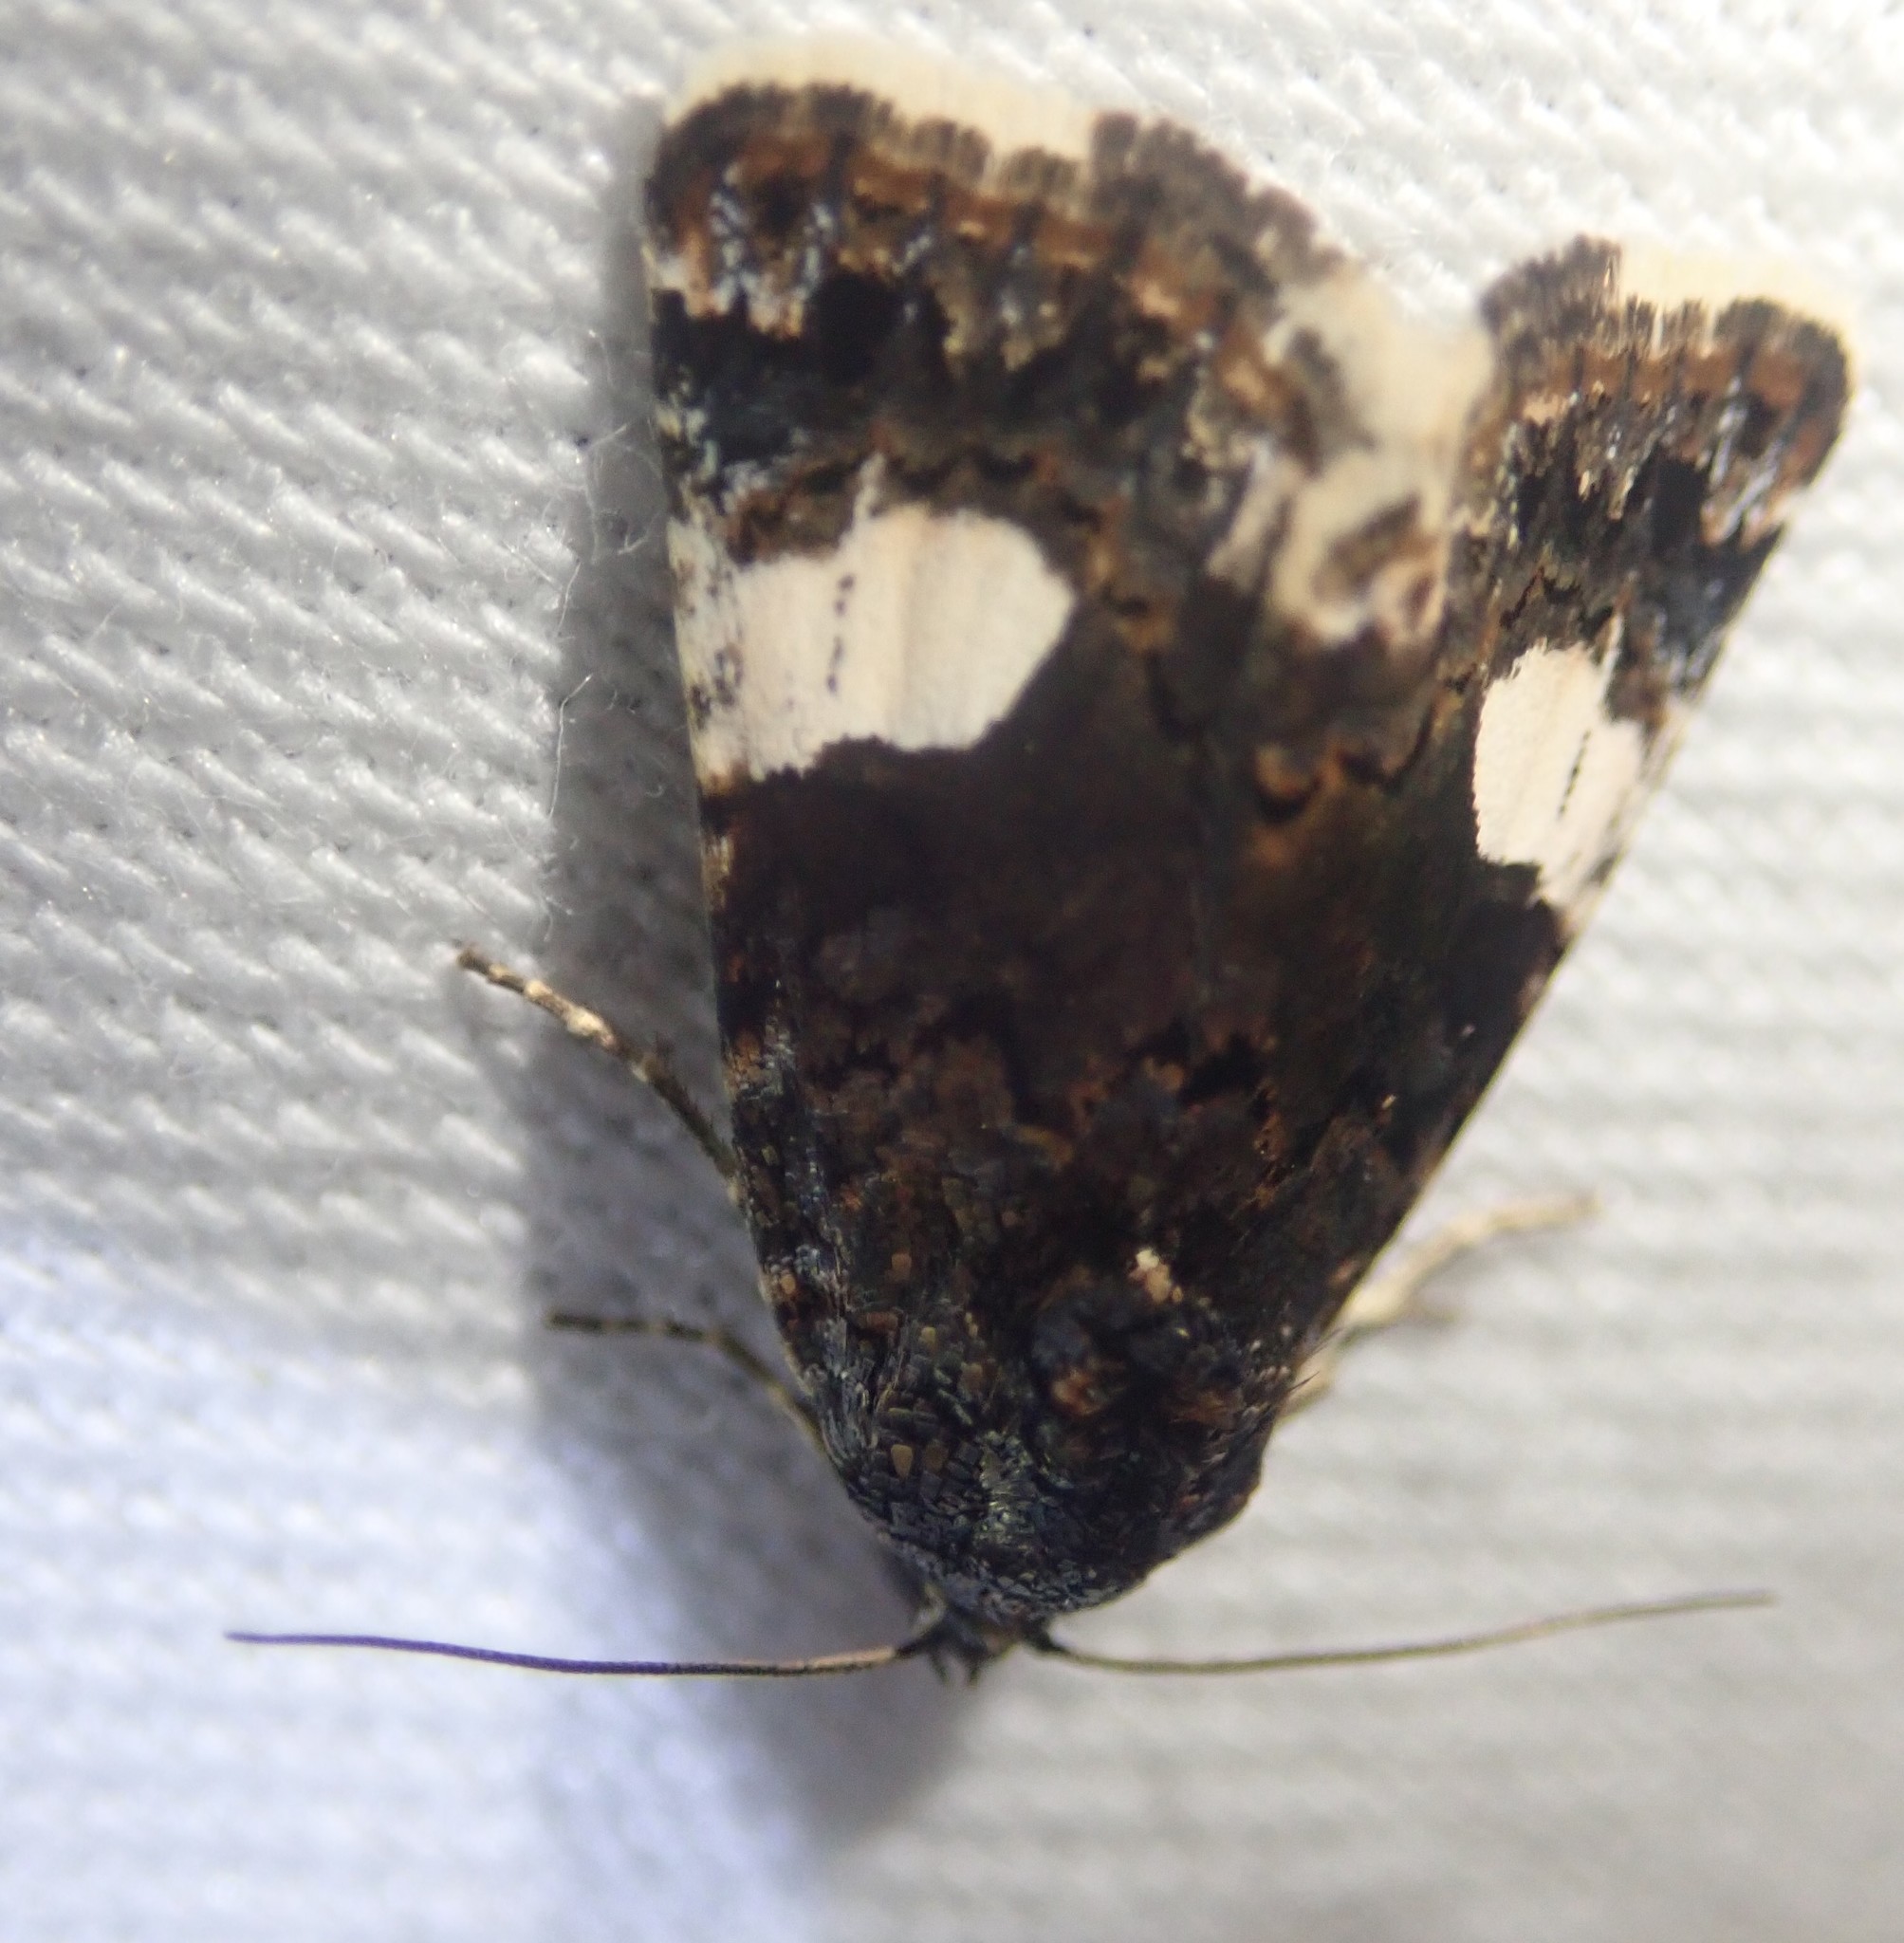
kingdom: Animalia
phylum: Arthropoda
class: Insecta
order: Lepidoptera
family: Erebidae
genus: Tyta
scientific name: Tyta luctuosa
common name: Four-spotted
